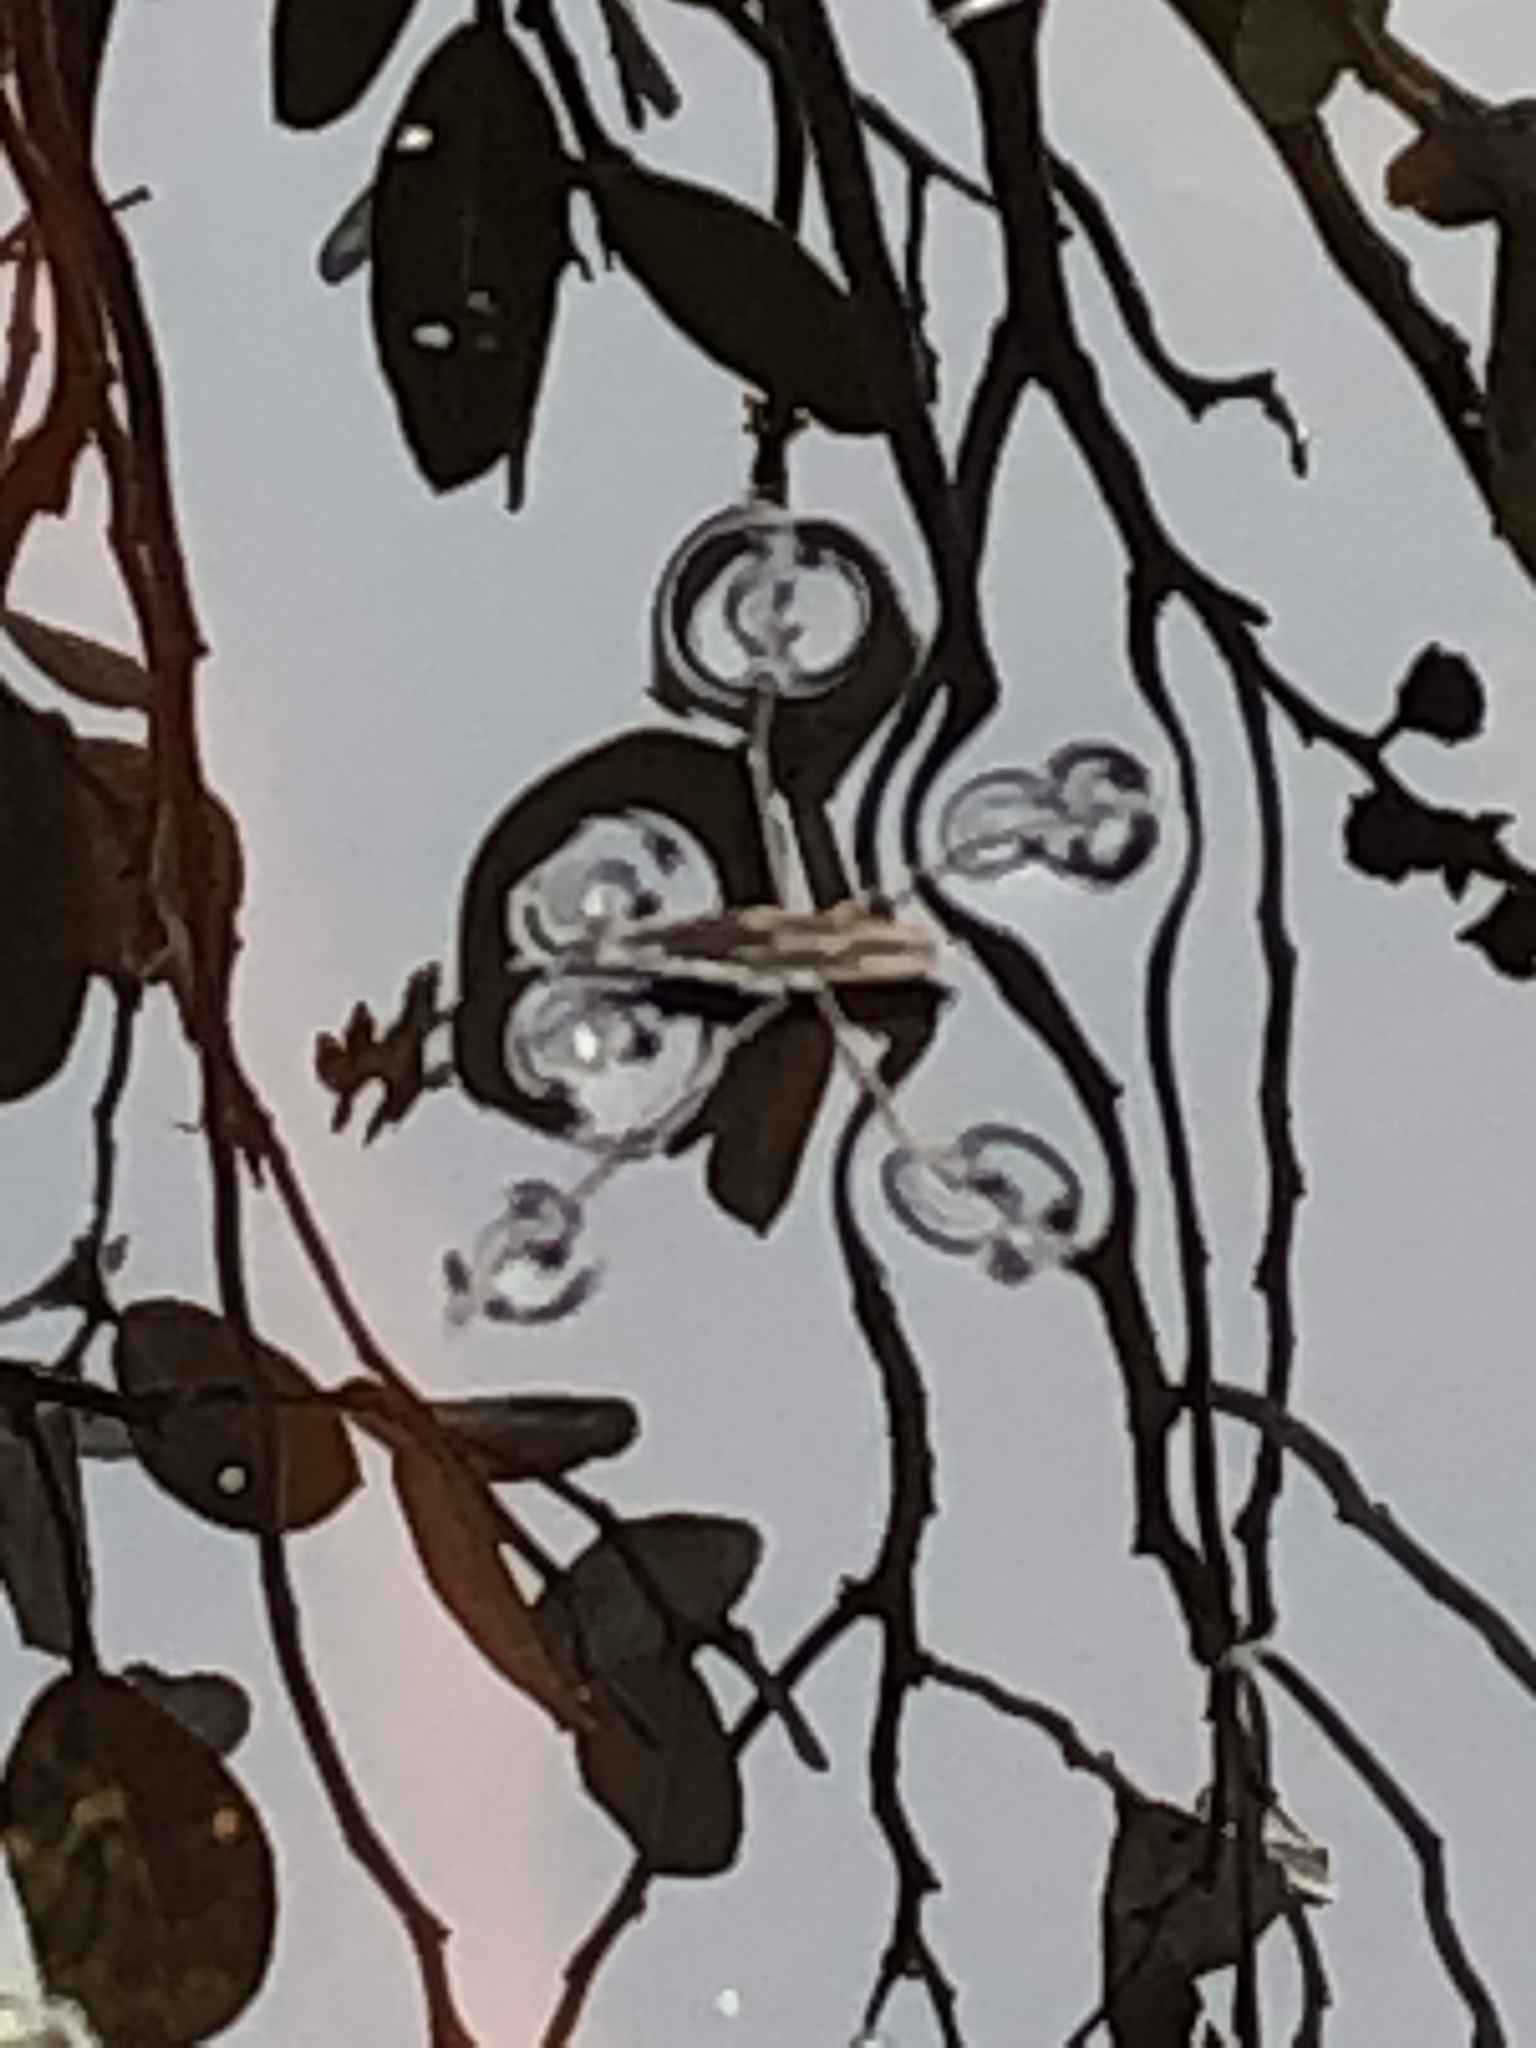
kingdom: Animalia
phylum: Arthropoda
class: Insecta
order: Hemiptera
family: Gerridae
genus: Gerris
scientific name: Gerris
